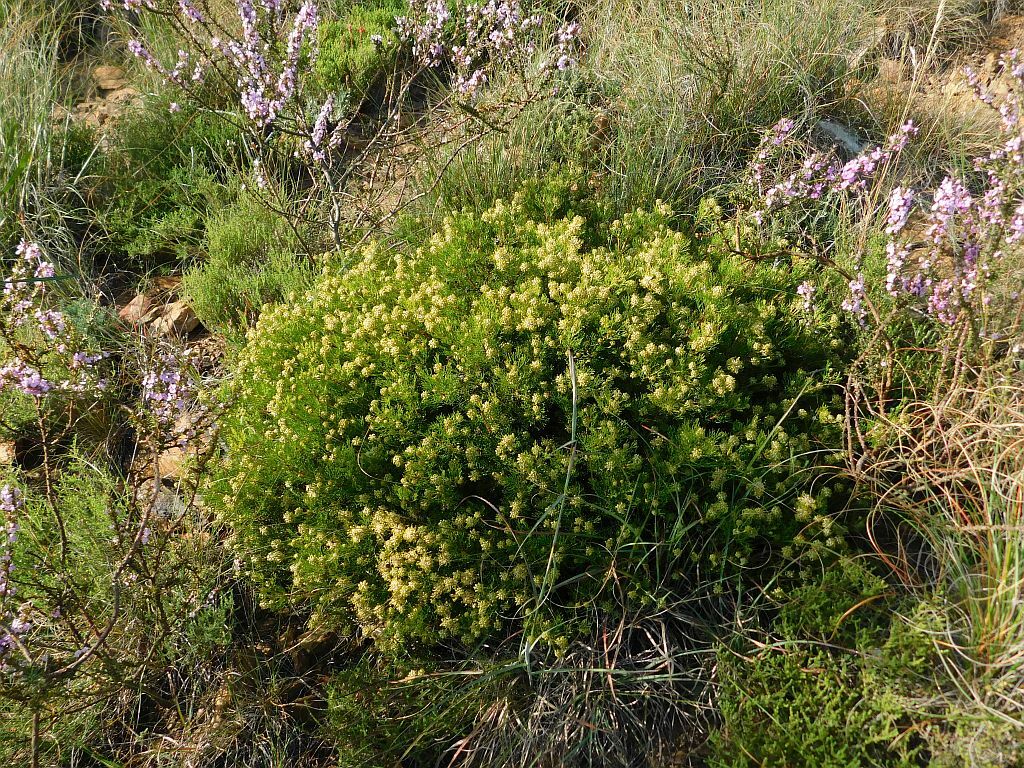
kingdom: Plantae
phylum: Tracheophyta
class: Magnoliopsida
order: Proteales
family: Proteaceae
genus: Serruria
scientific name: Serruria
